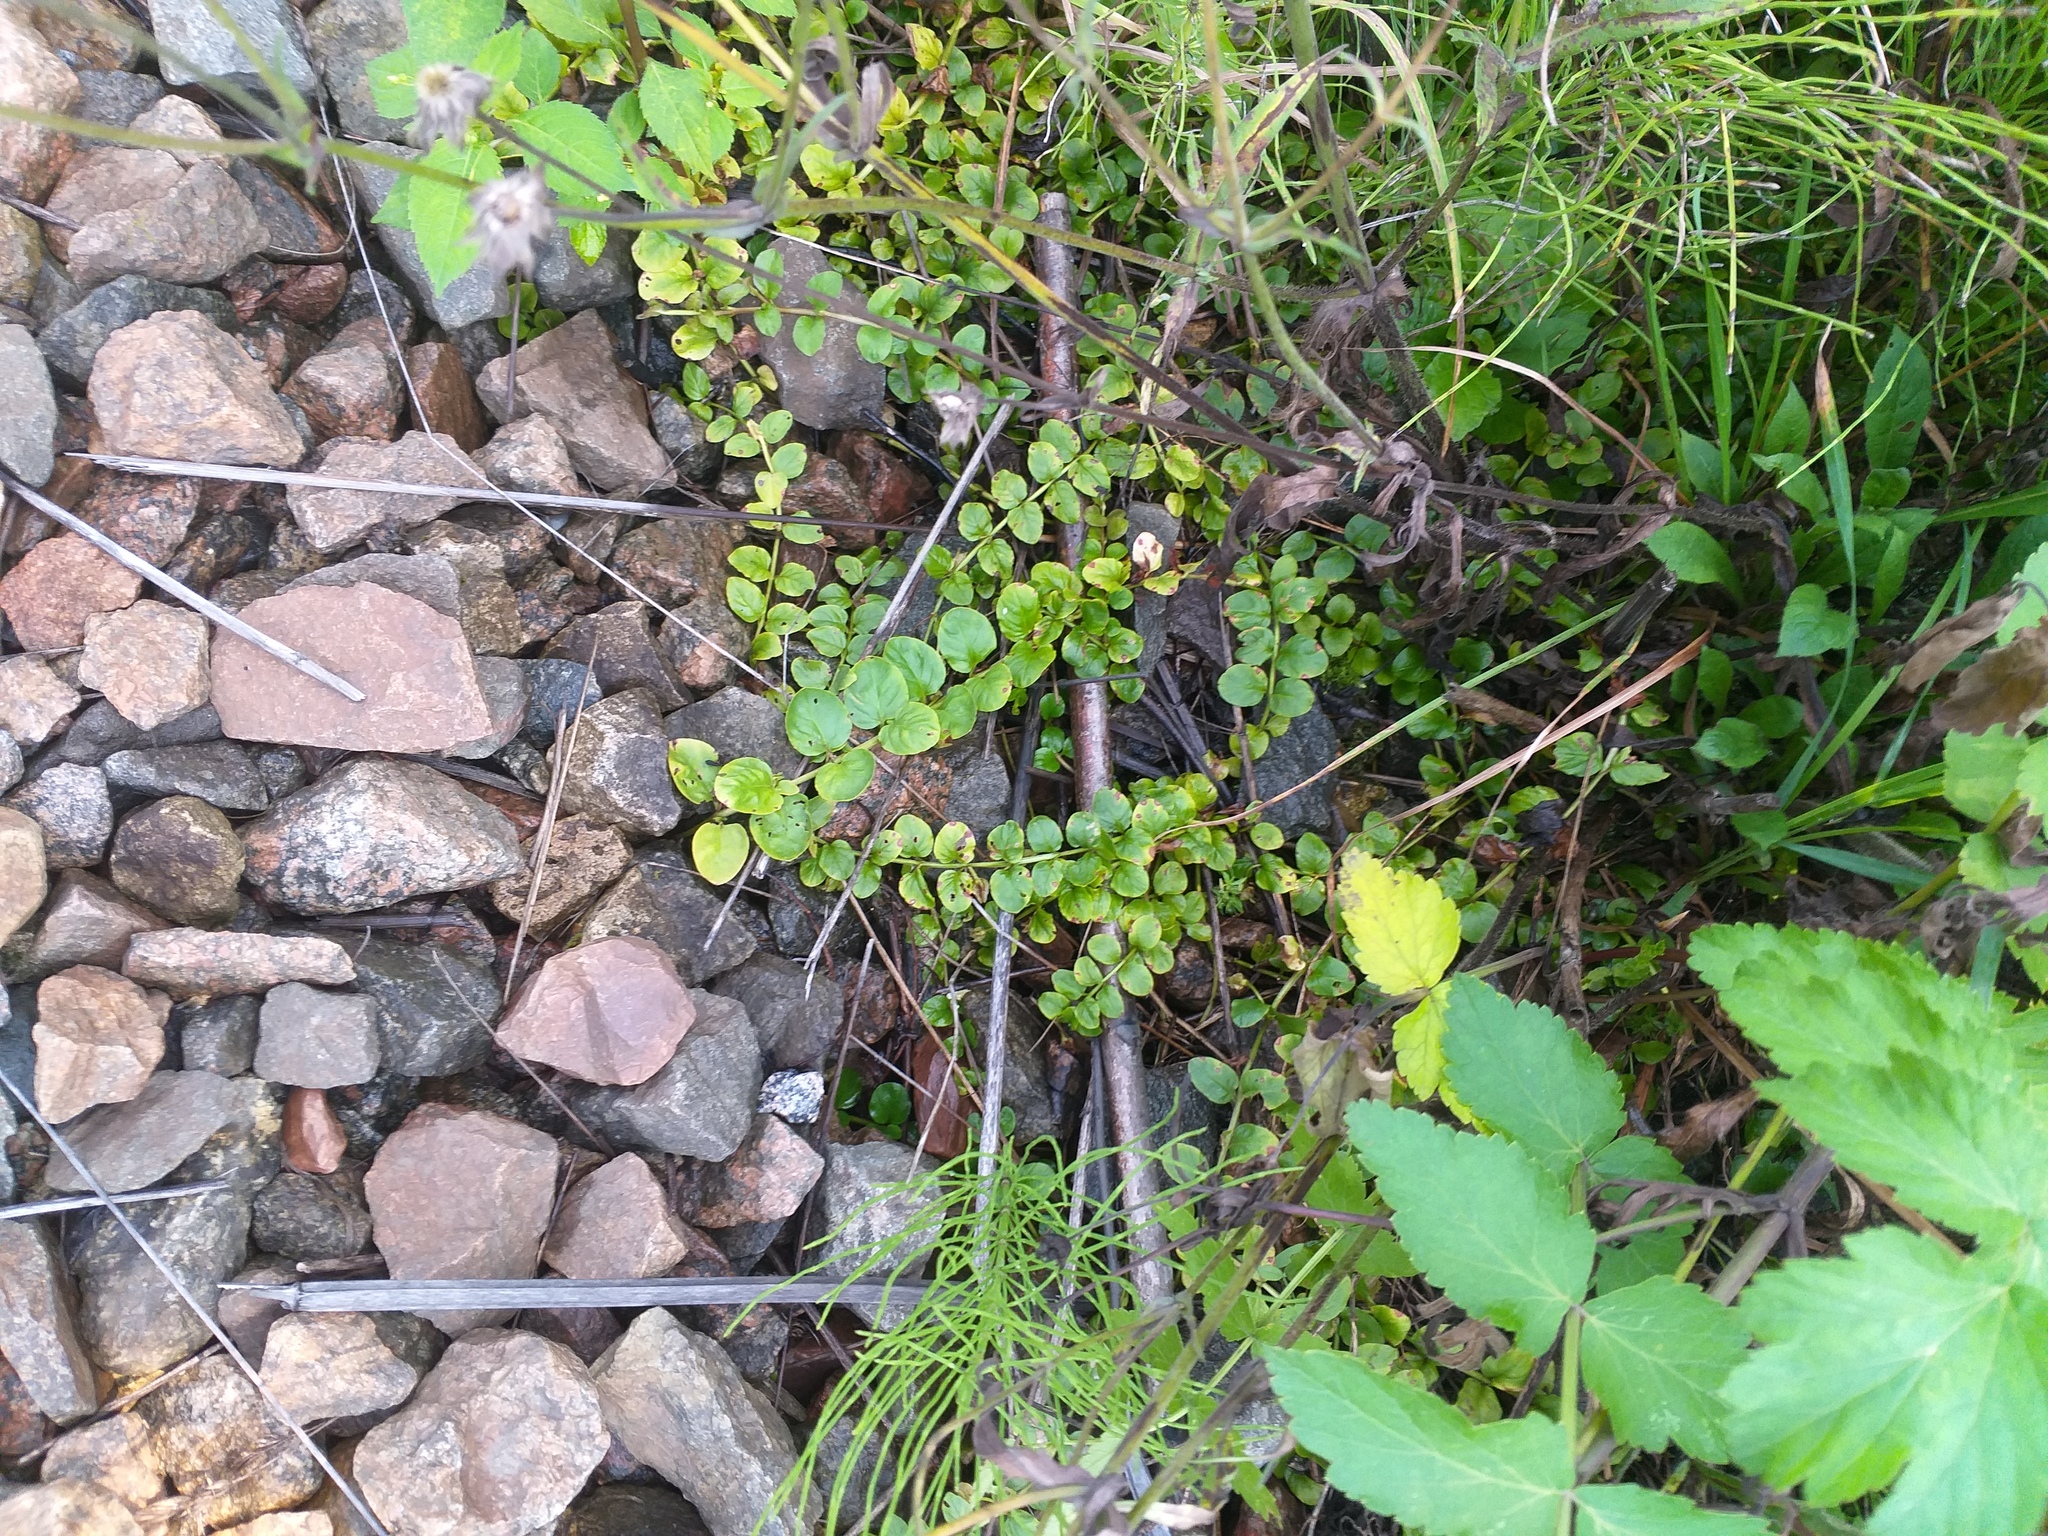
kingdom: Plantae
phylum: Tracheophyta
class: Magnoliopsida
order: Ericales
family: Primulaceae
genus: Lysimachia
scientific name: Lysimachia nummularia
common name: Moneywort
